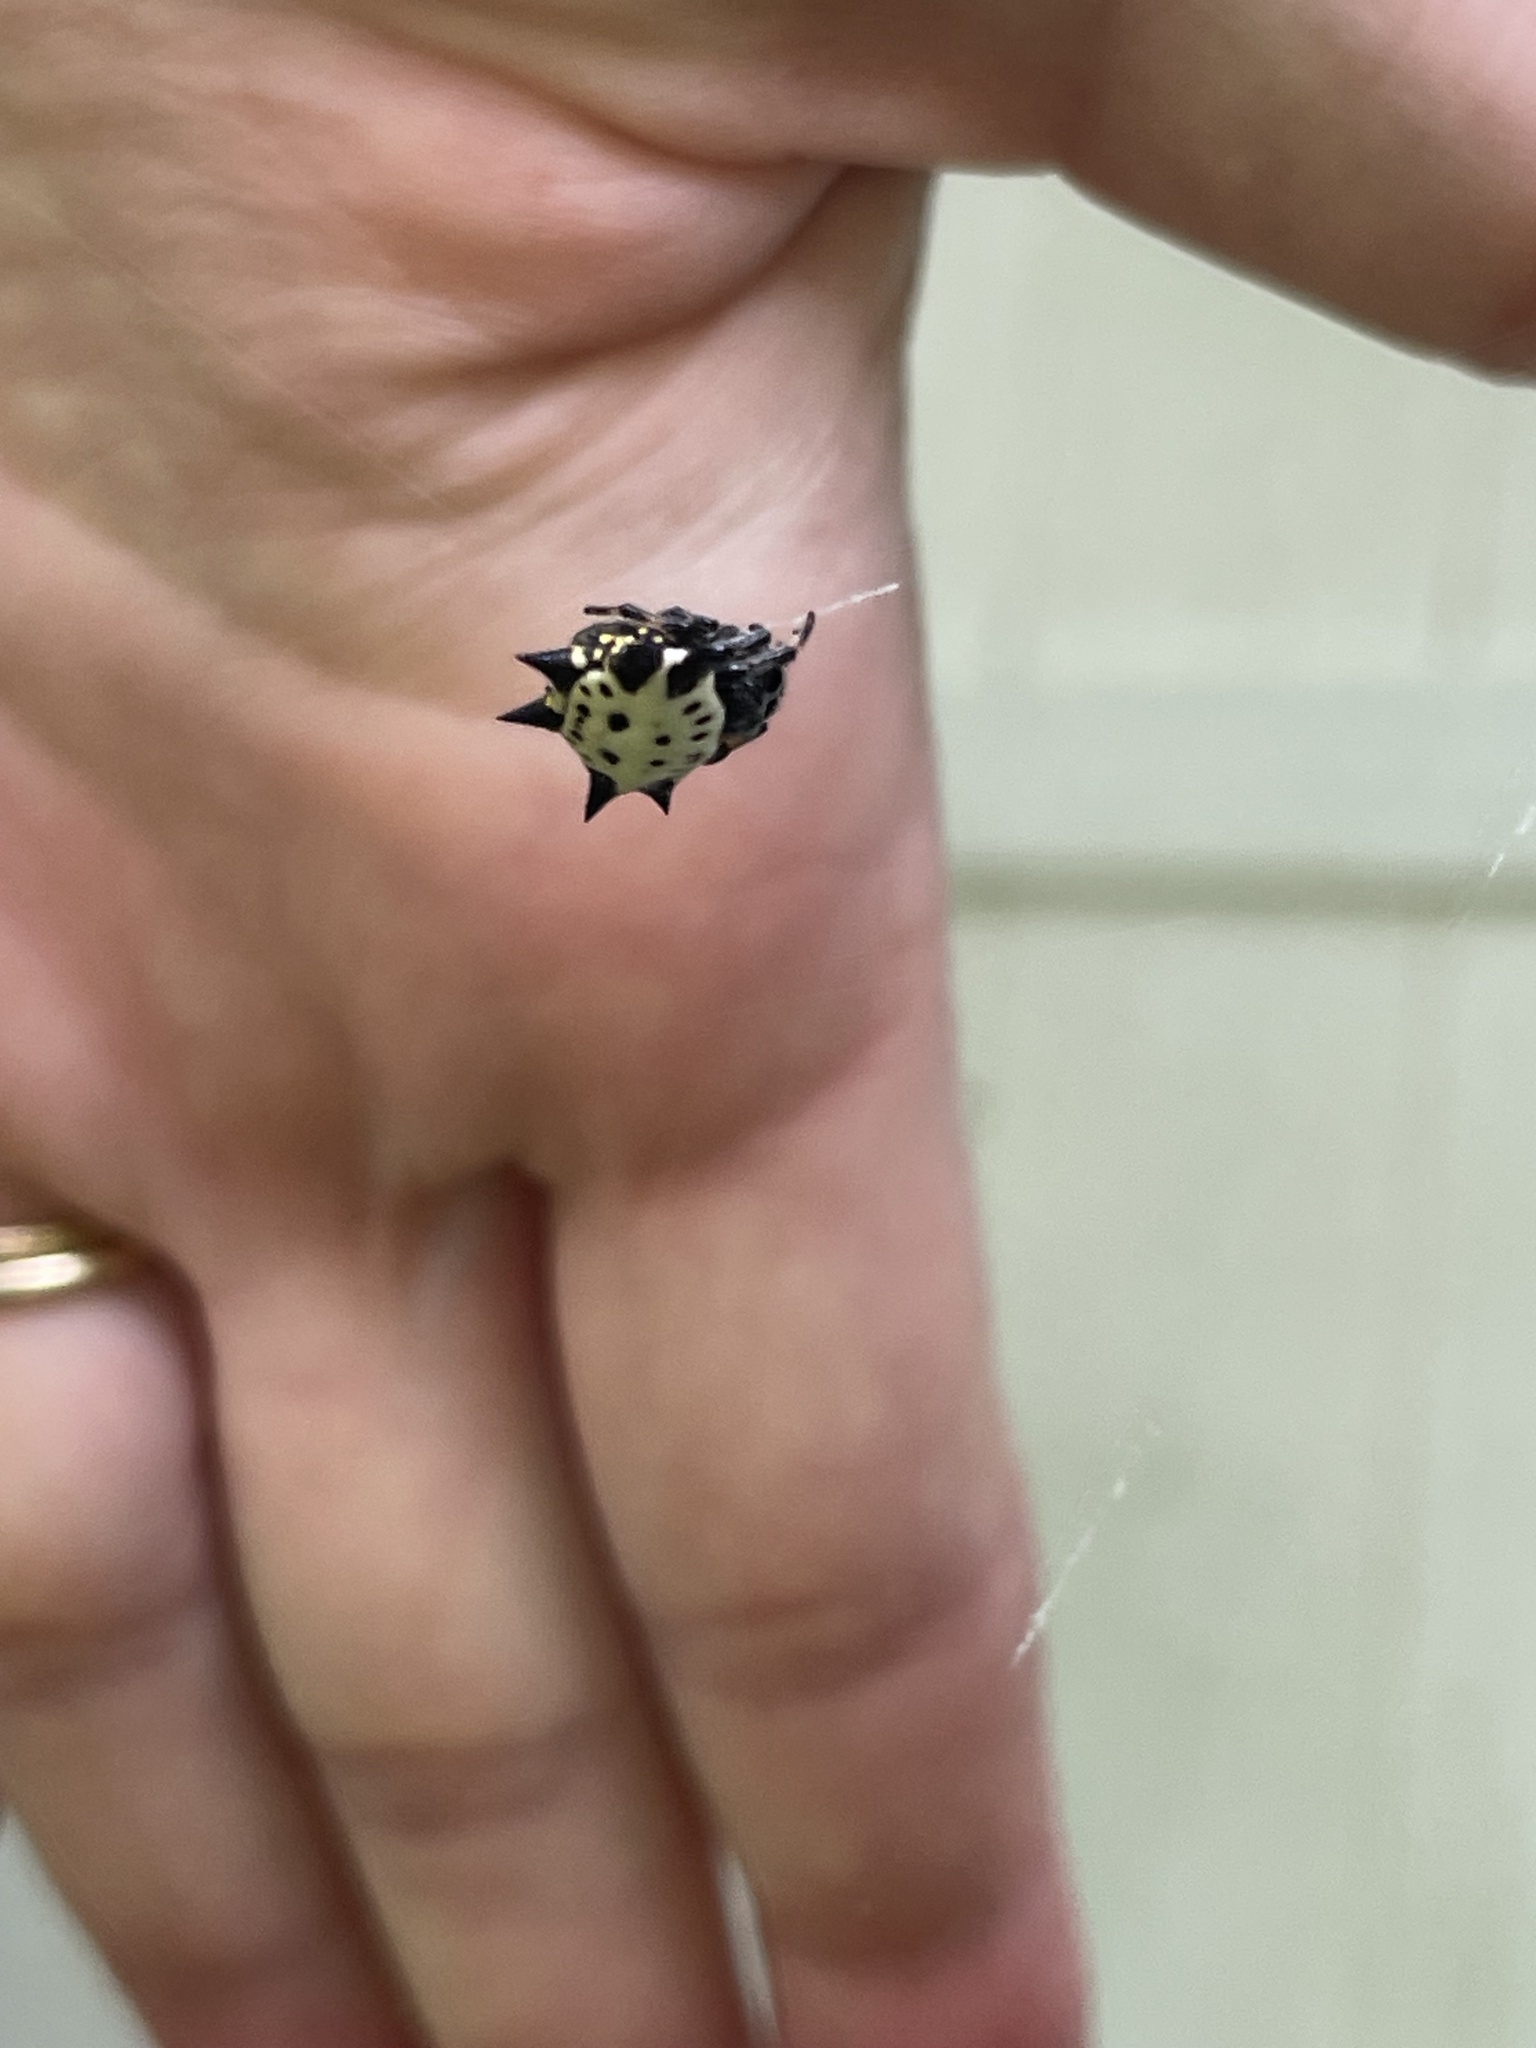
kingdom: Animalia
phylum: Arthropoda
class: Arachnida
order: Araneae
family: Araneidae
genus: Gasteracantha
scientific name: Gasteracantha cancriformis
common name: Orb weavers
